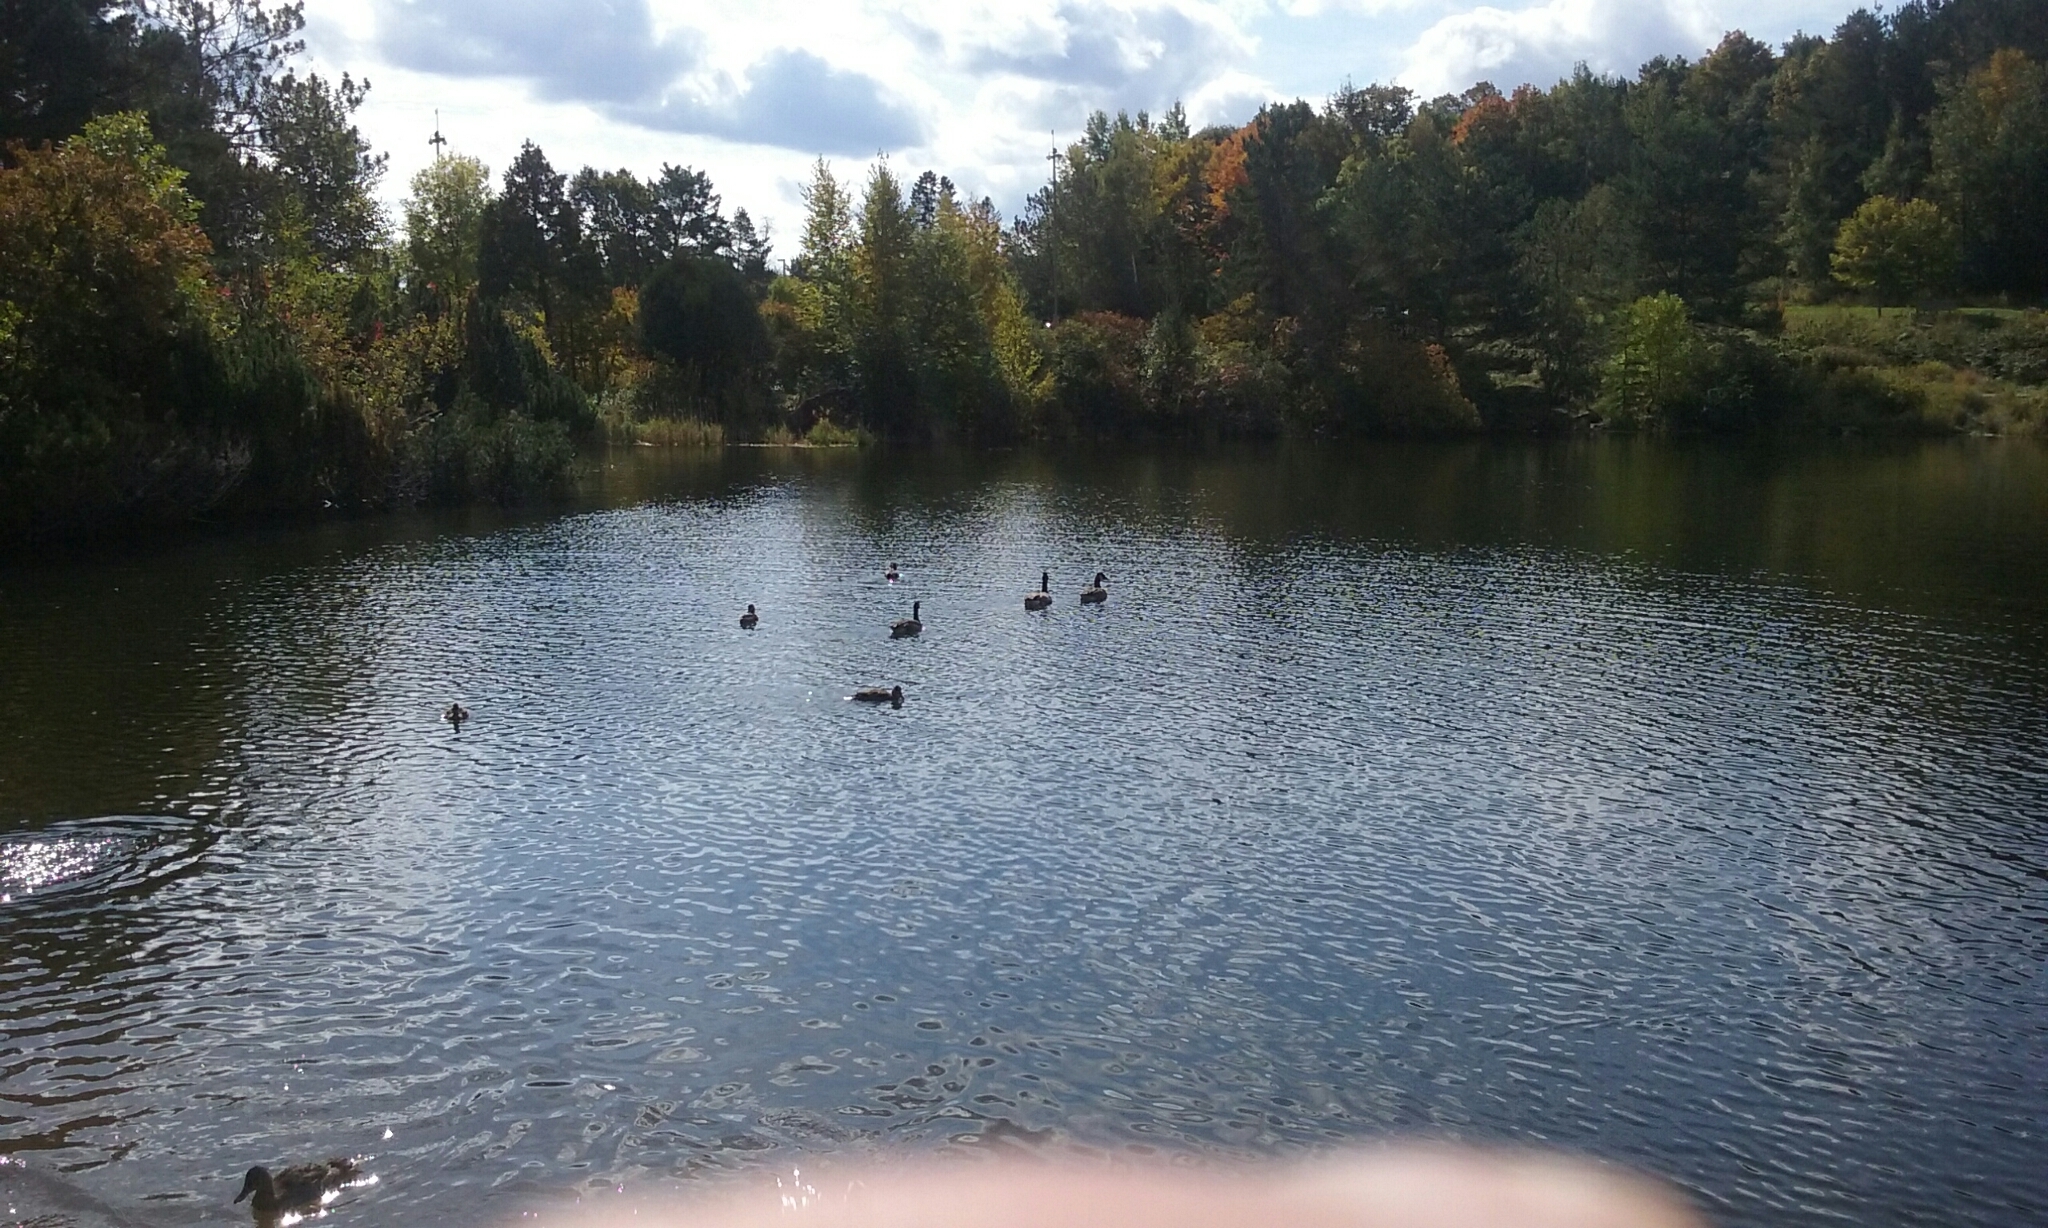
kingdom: Animalia
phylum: Chordata
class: Aves
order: Anseriformes
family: Anatidae
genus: Branta
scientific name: Branta canadensis
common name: Canada goose
